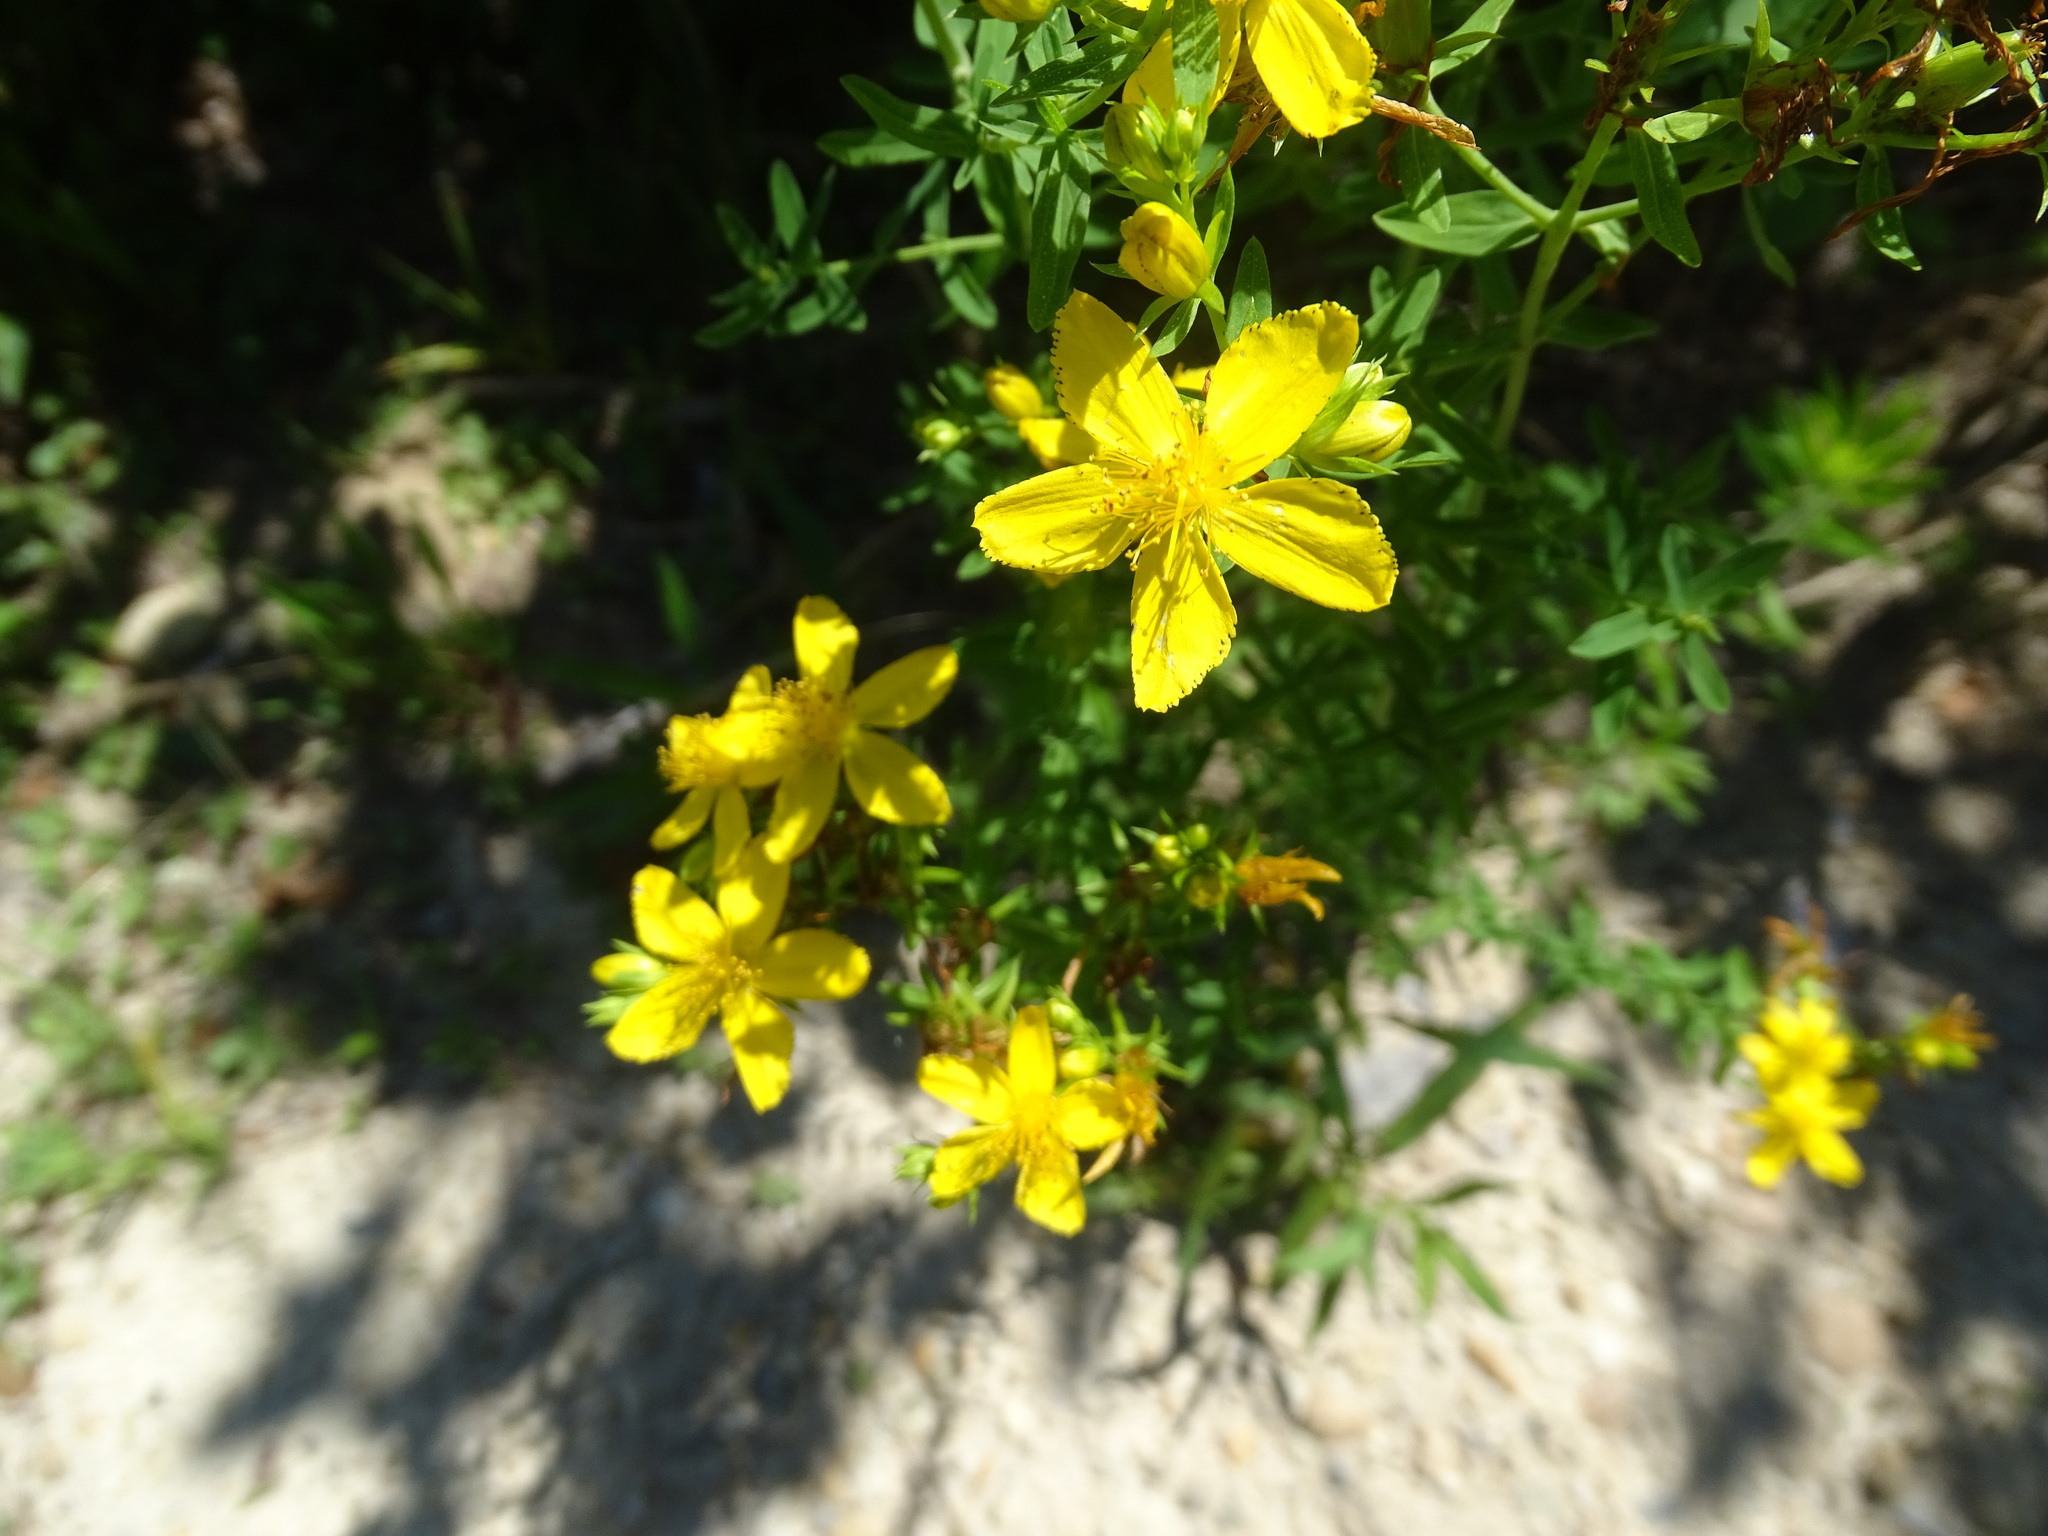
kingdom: Plantae
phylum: Tracheophyta
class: Magnoliopsida
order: Malpighiales
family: Hypericaceae
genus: Hypericum
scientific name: Hypericum perforatum
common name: Common st. johnswort
